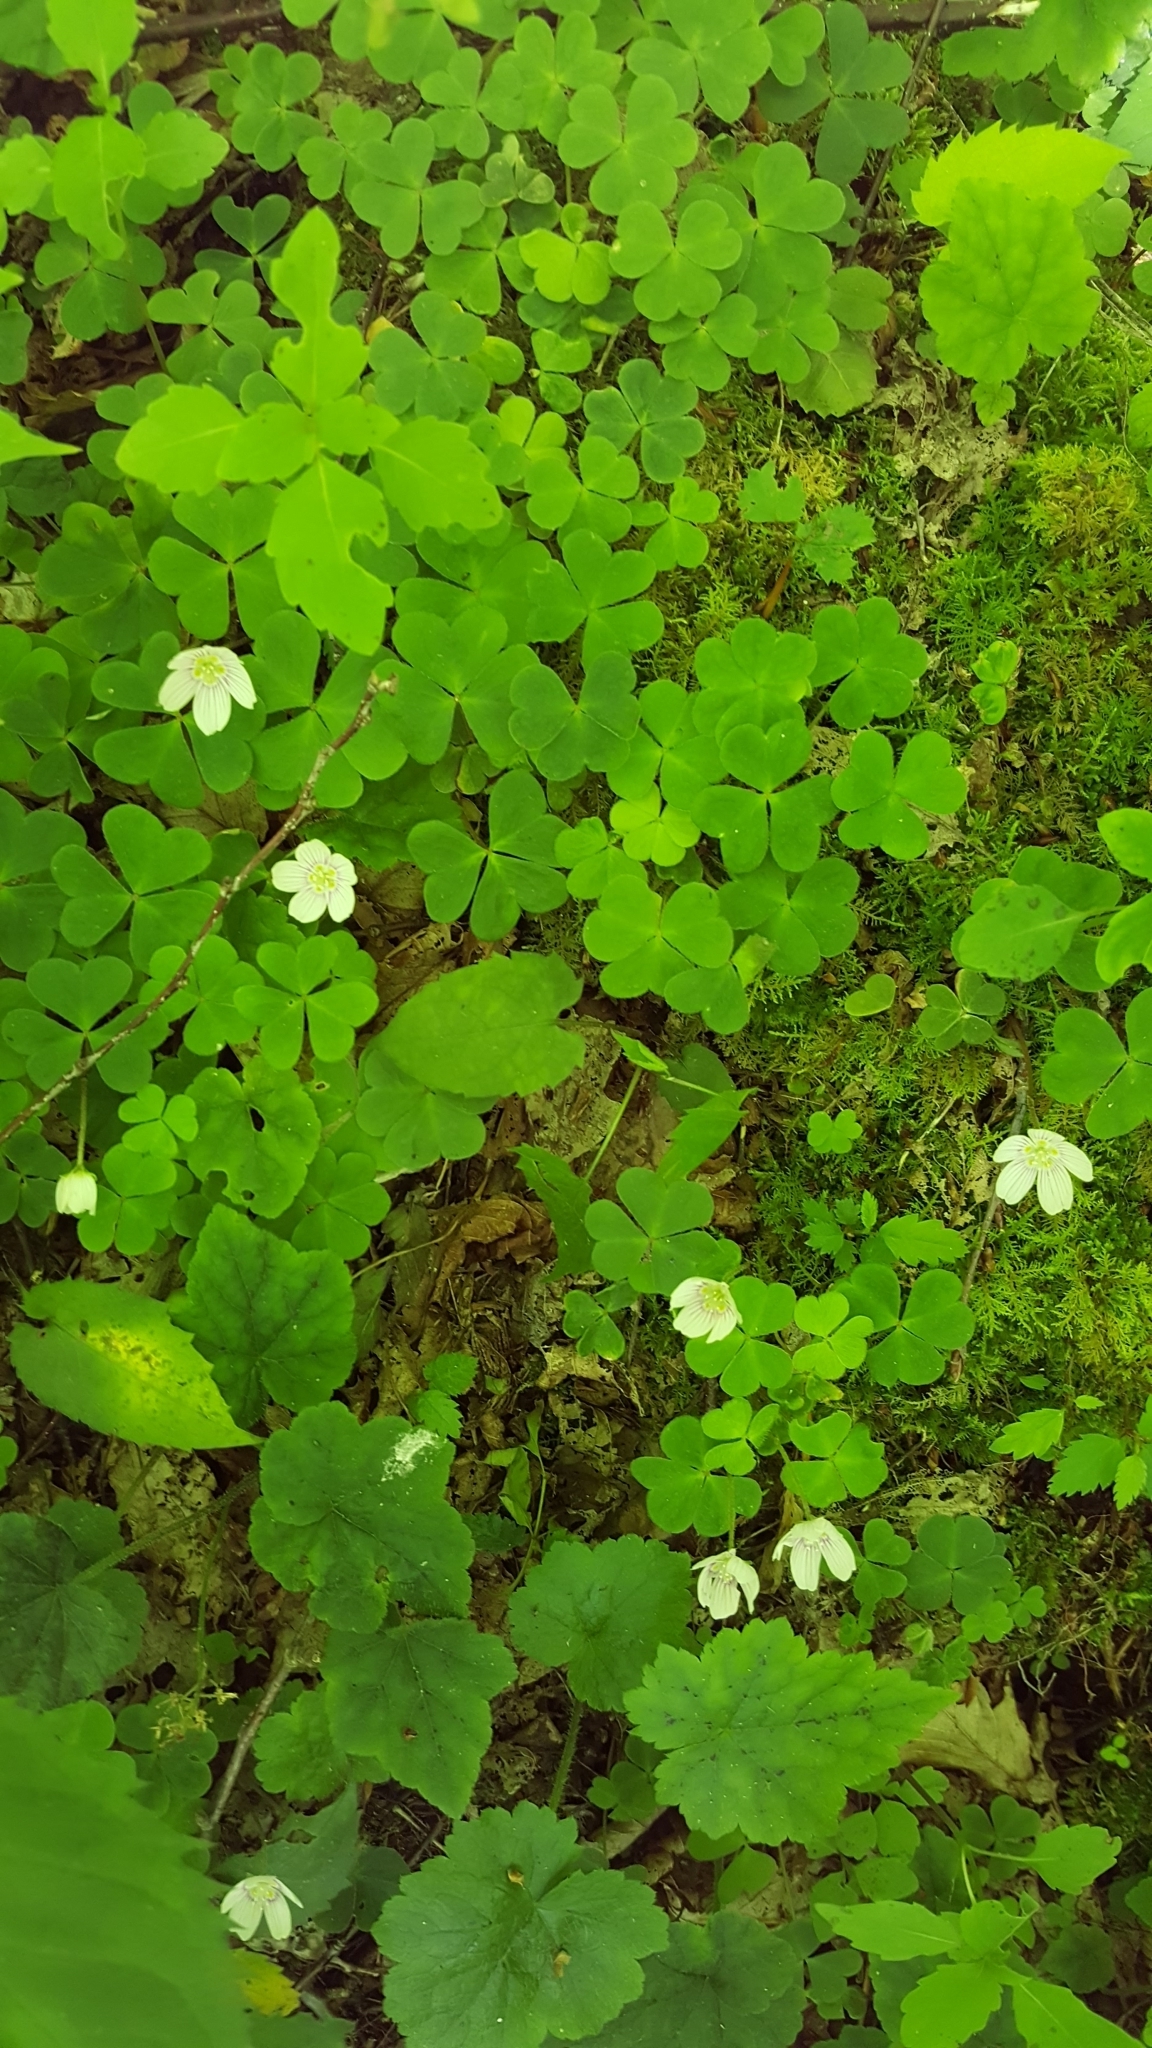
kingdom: Plantae
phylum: Tracheophyta
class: Magnoliopsida
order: Oxalidales
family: Oxalidaceae
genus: Oxalis
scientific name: Oxalis montana
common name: American wood-sorrel
